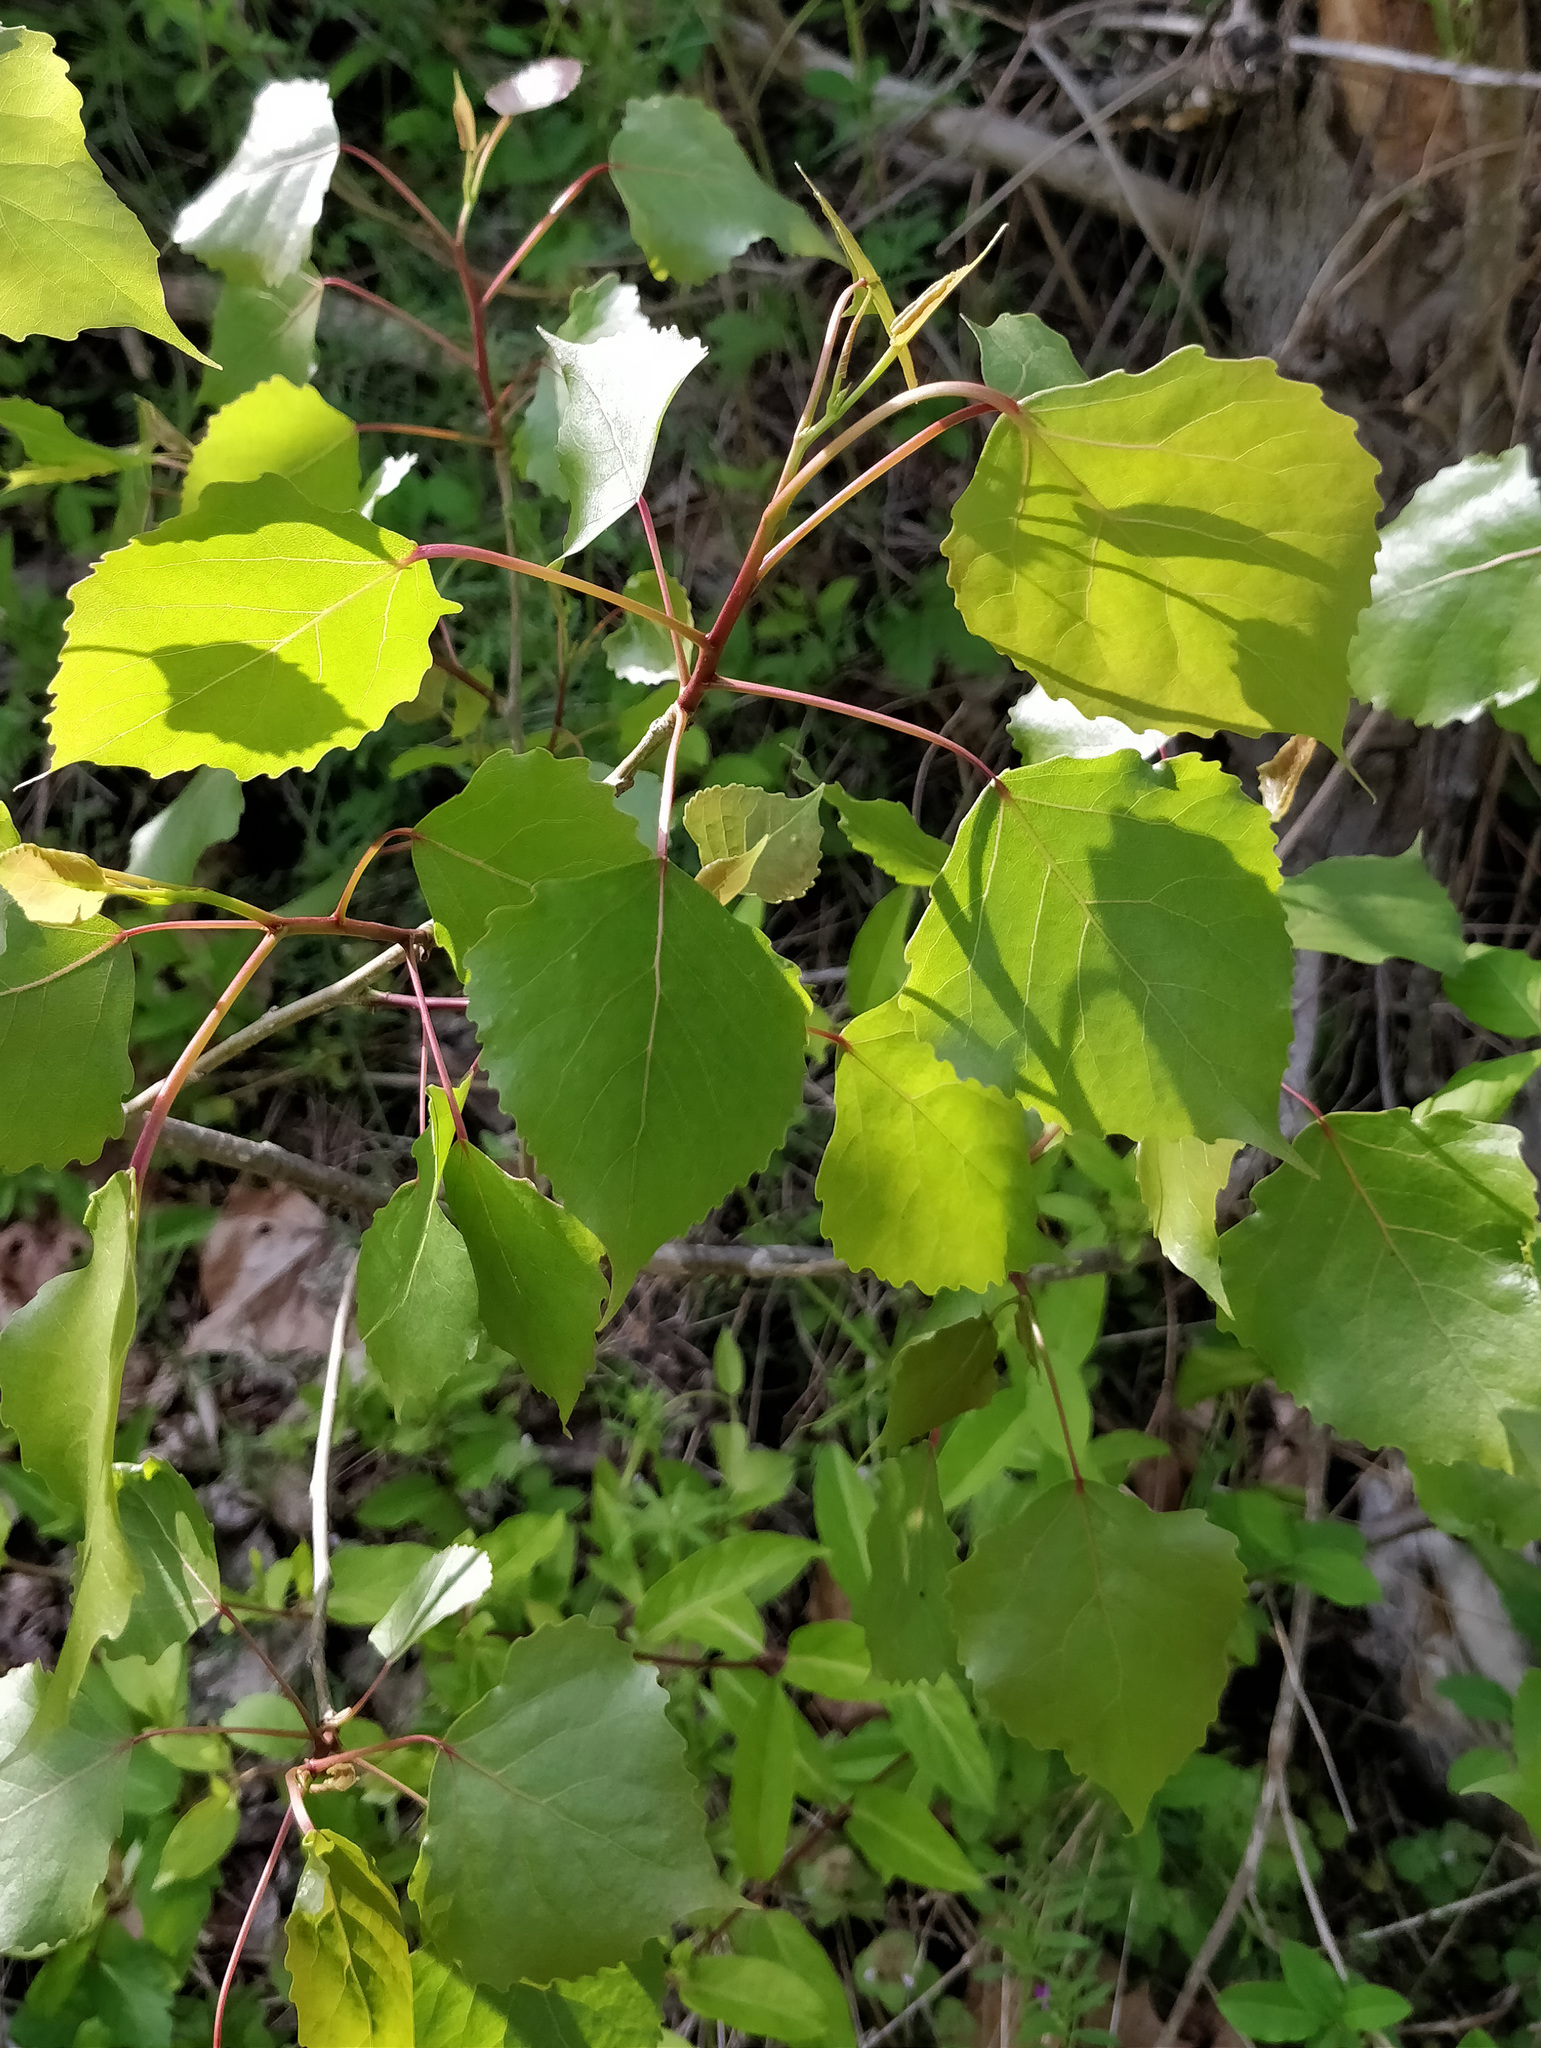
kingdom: Plantae
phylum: Tracheophyta
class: Magnoliopsida
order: Malpighiales
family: Salicaceae
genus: Populus
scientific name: Populus deltoides
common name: Eastern cottonwood
